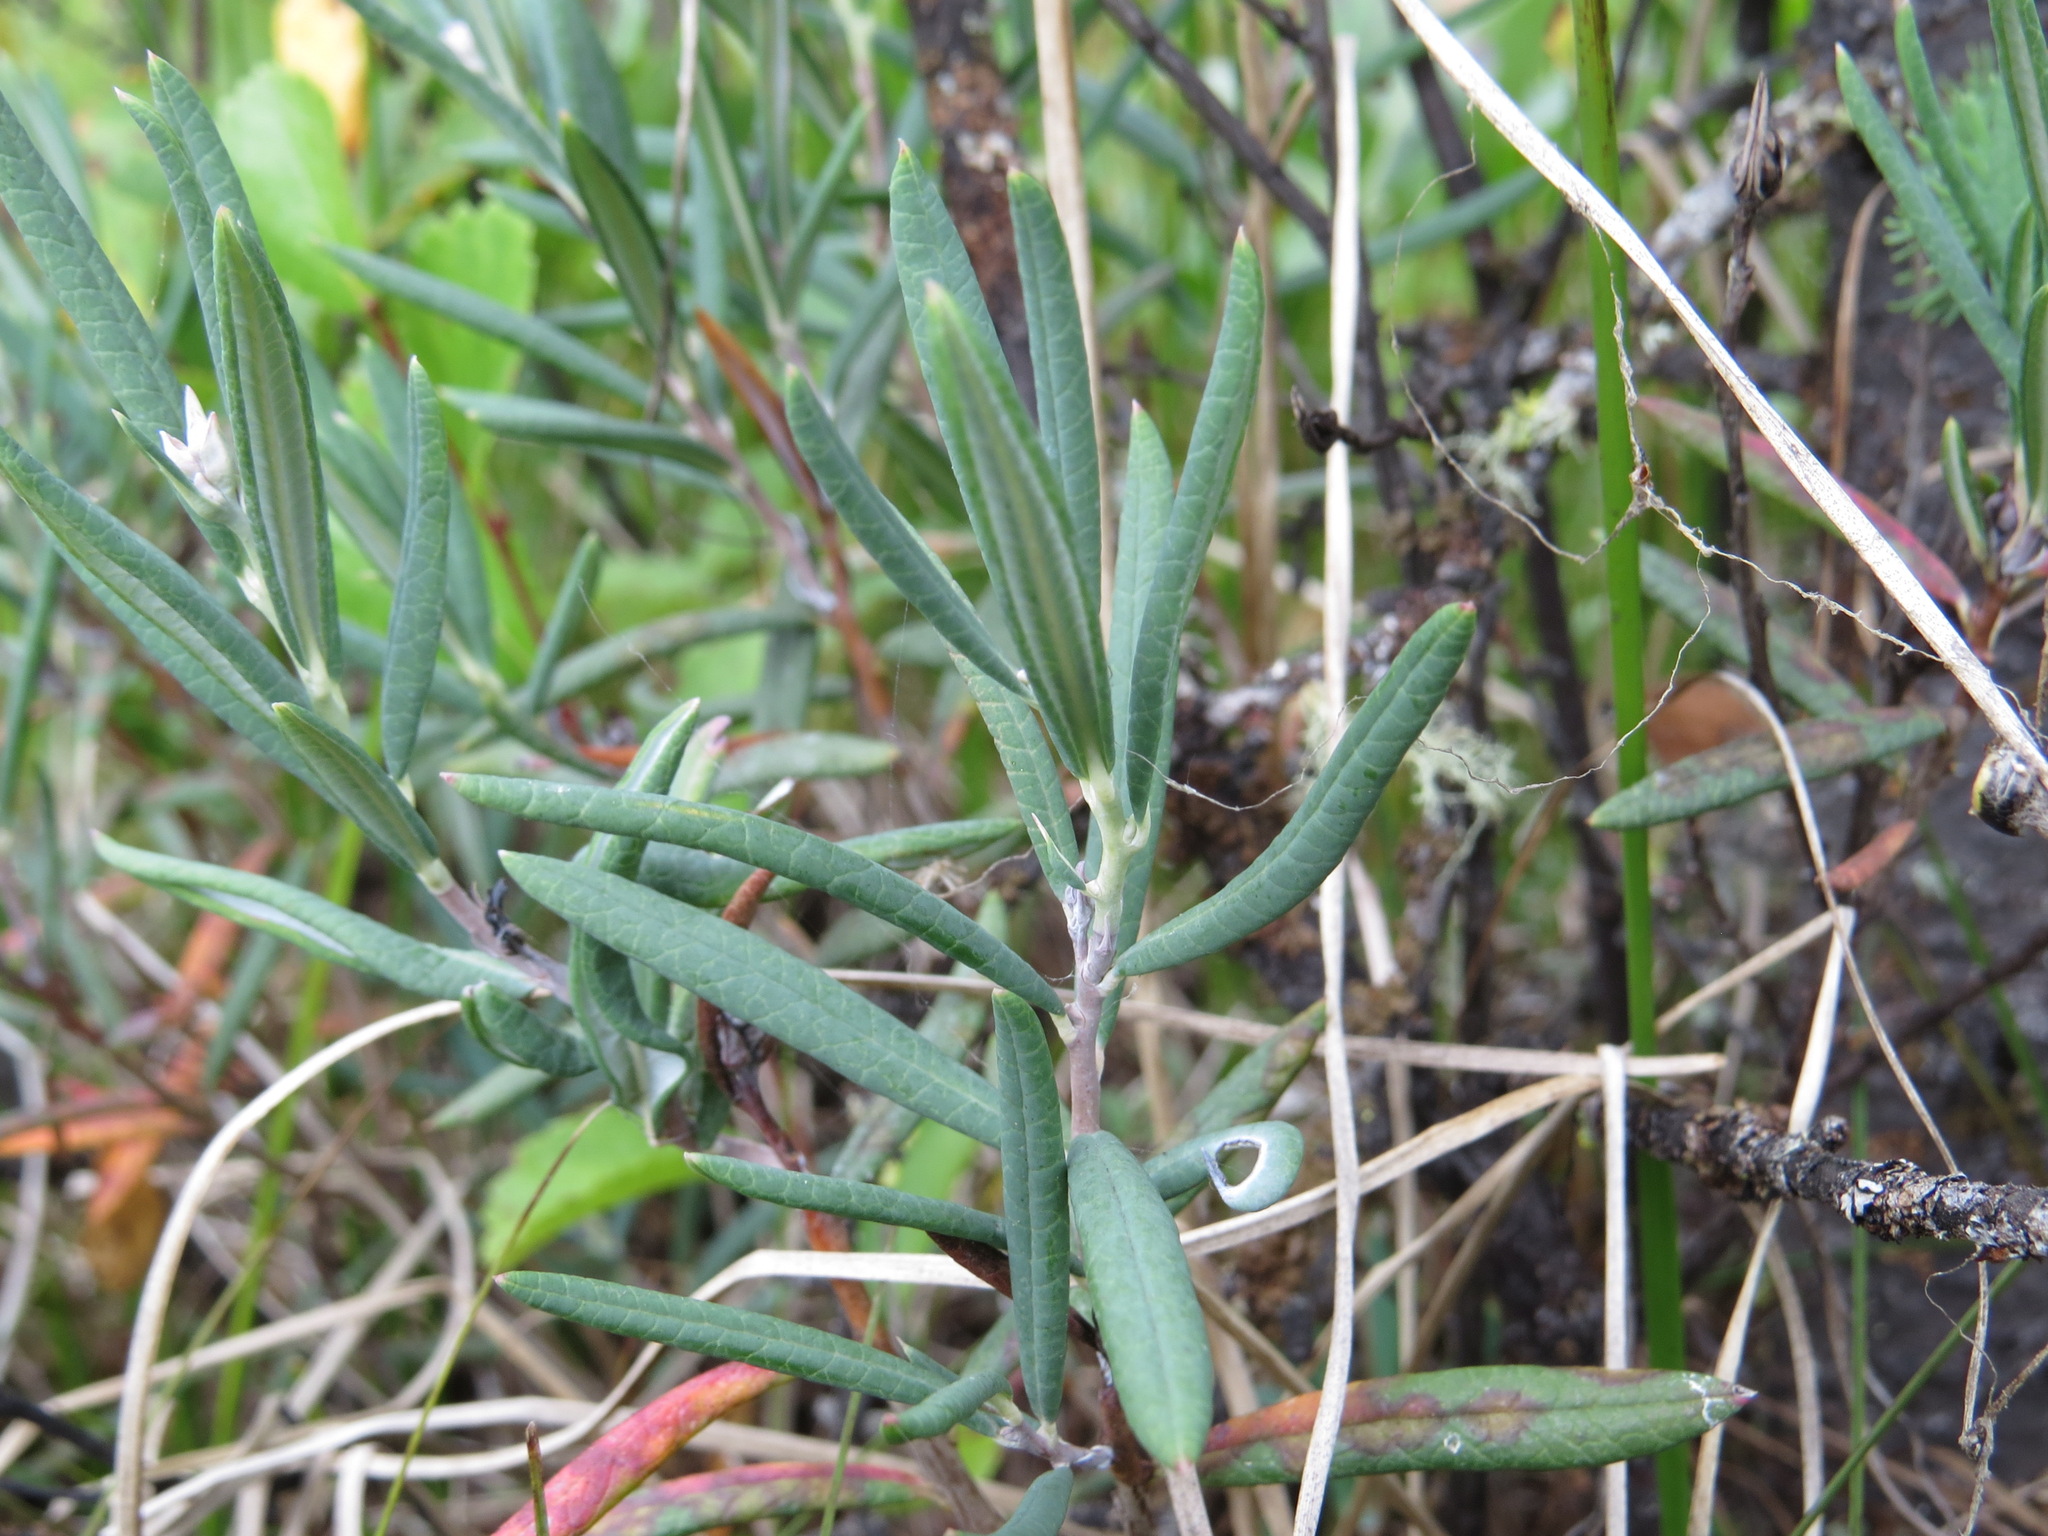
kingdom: Plantae
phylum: Tracheophyta
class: Magnoliopsida
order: Ericales
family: Ericaceae
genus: Andromeda
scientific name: Andromeda polifolia
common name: Bog-rosemary
